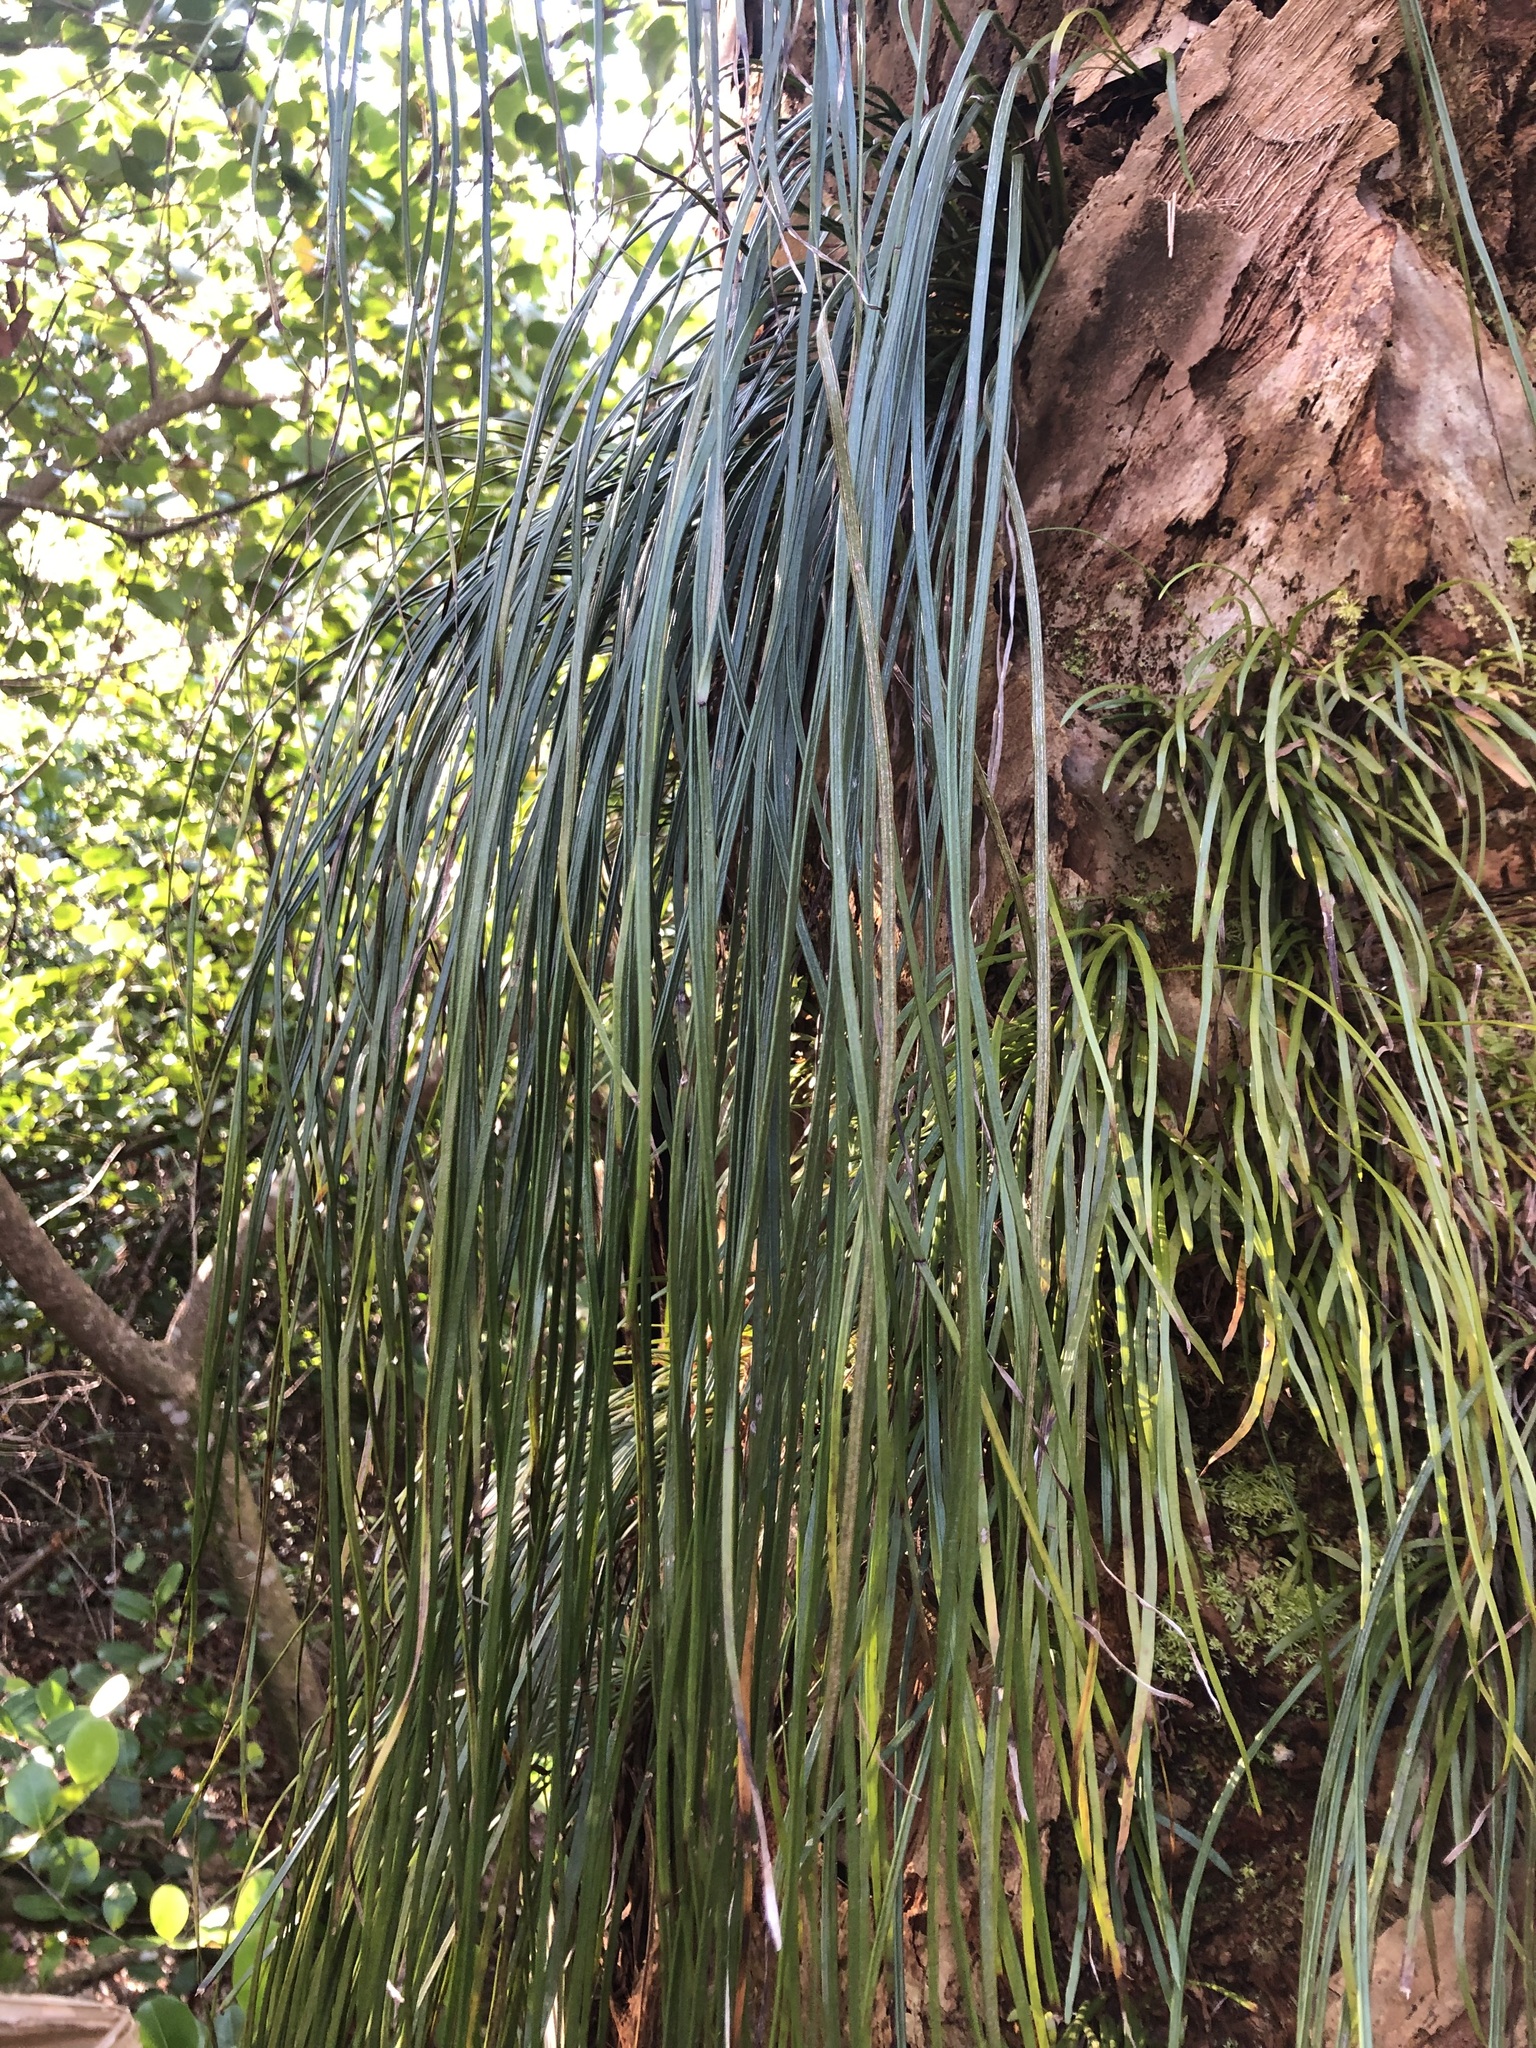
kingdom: Plantae
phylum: Tracheophyta
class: Polypodiopsida
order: Polypodiales
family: Pteridaceae
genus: Vittaria
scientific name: Vittaria lineata
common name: Shoestring fern
